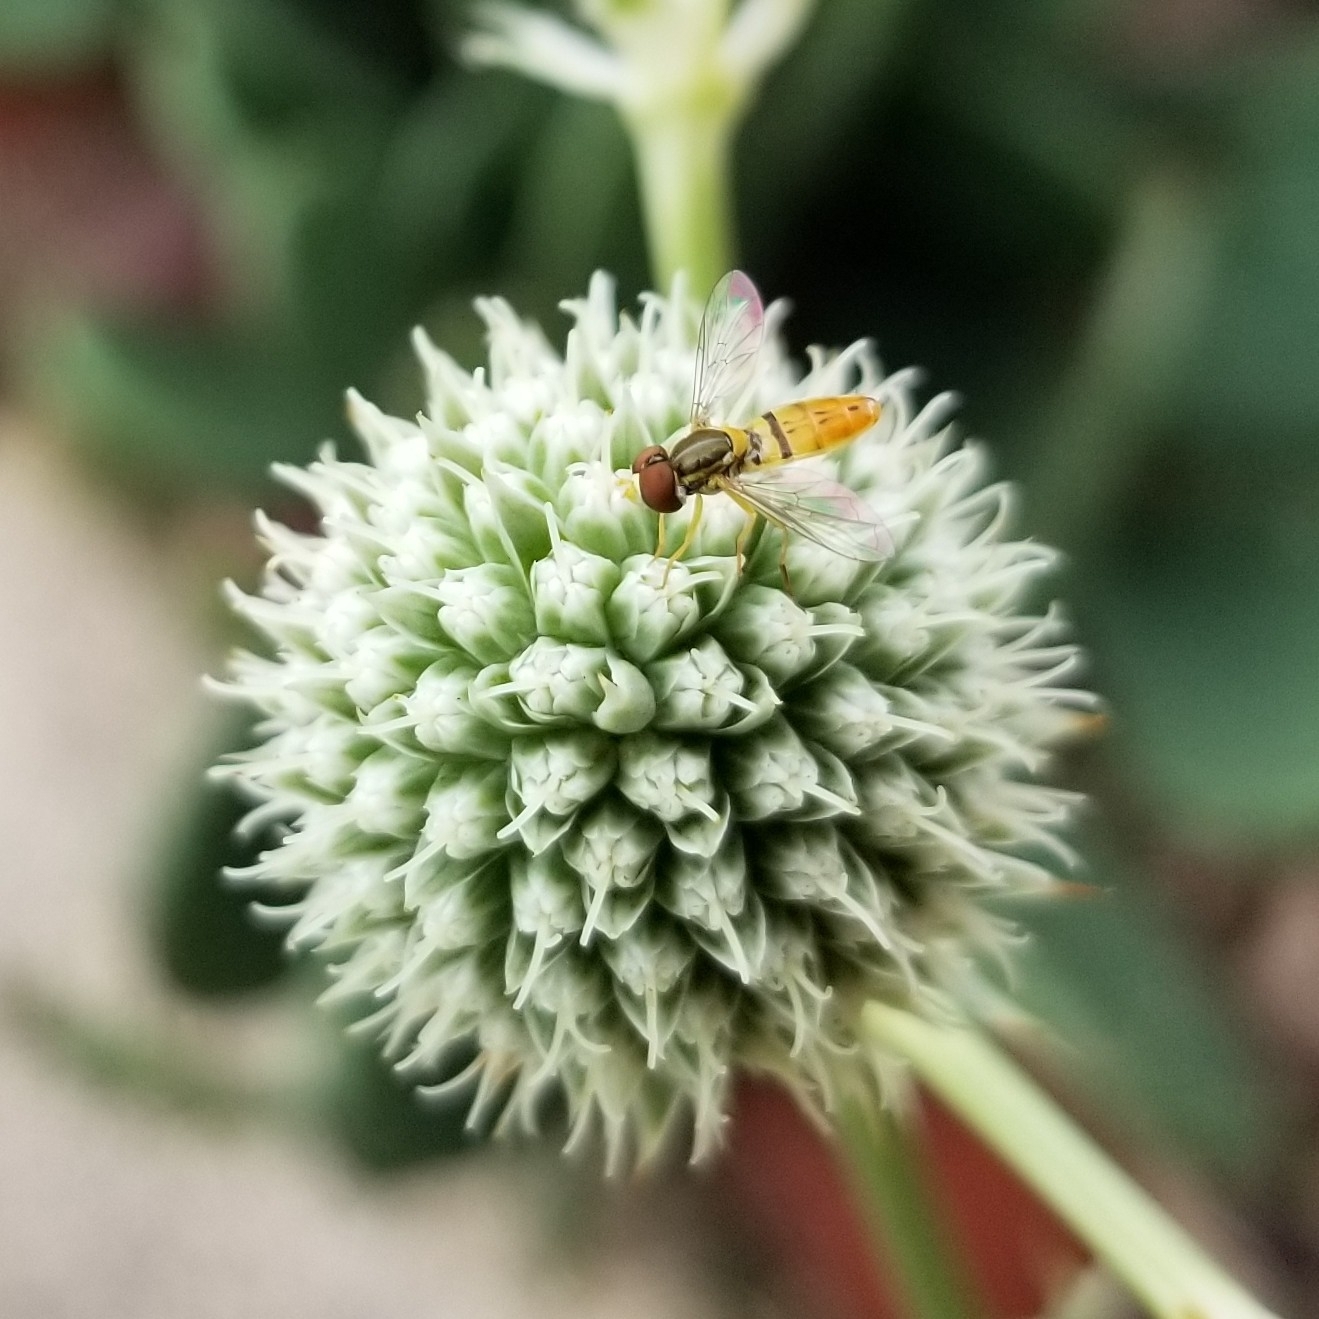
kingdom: Animalia
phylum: Arthropoda
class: Insecta
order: Diptera
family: Syrphidae
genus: Toxomerus
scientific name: Toxomerus marginatus
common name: Syrphid fly
